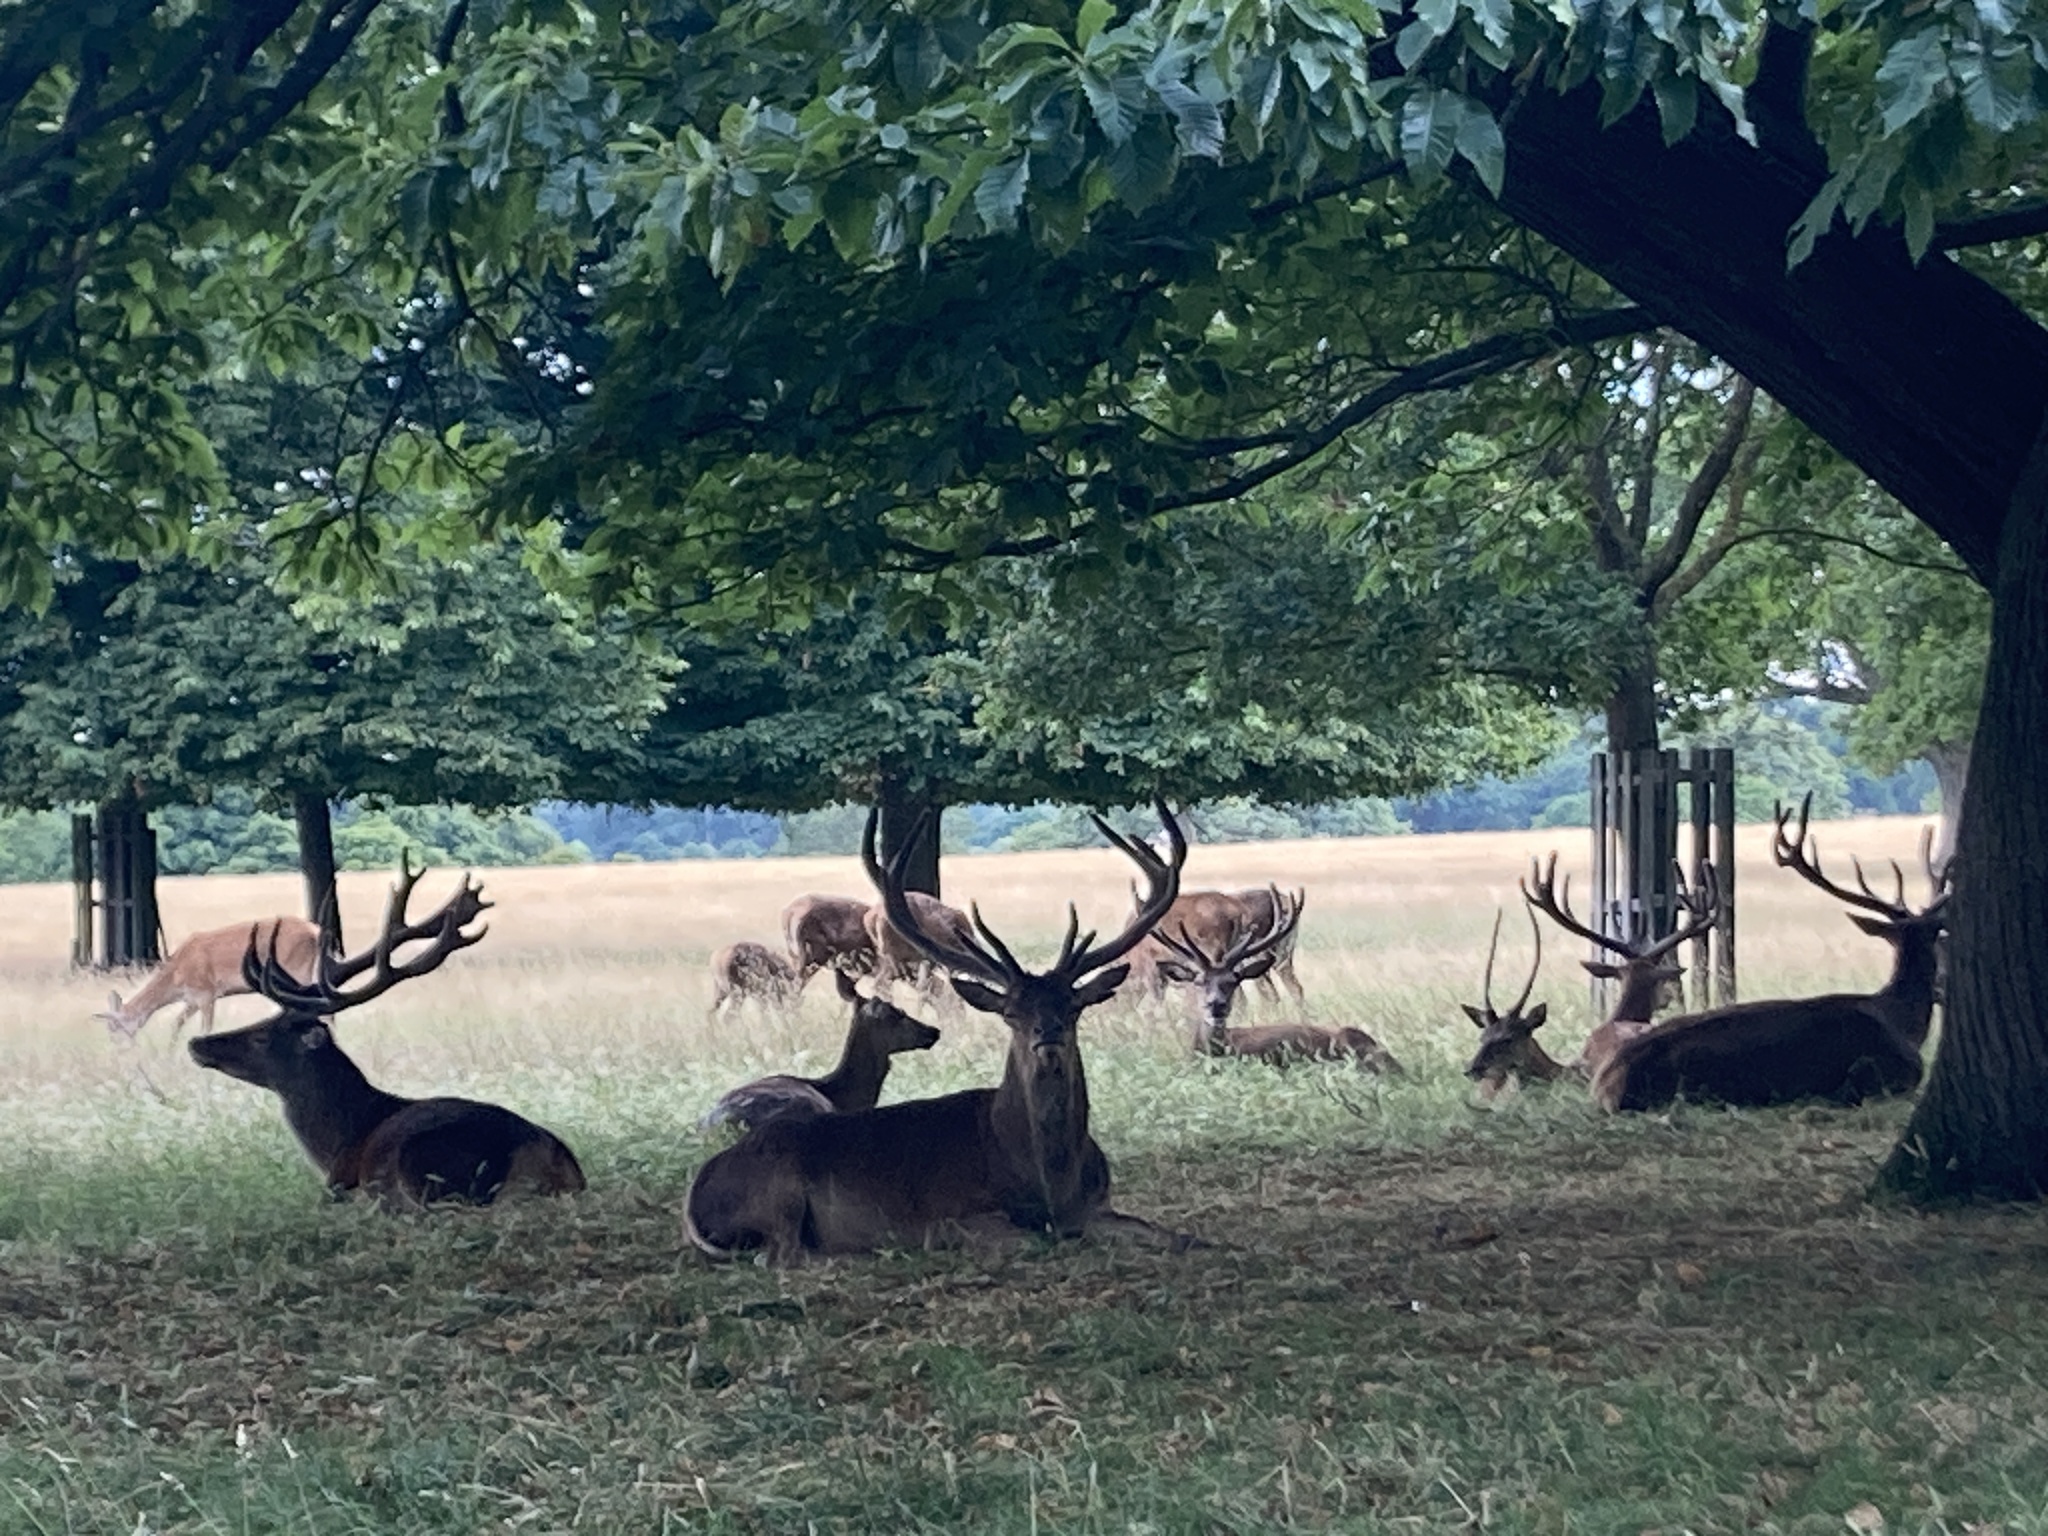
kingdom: Animalia
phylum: Chordata
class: Mammalia
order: Artiodactyla
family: Cervidae
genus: Cervus
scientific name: Cervus elaphus
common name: Red deer
